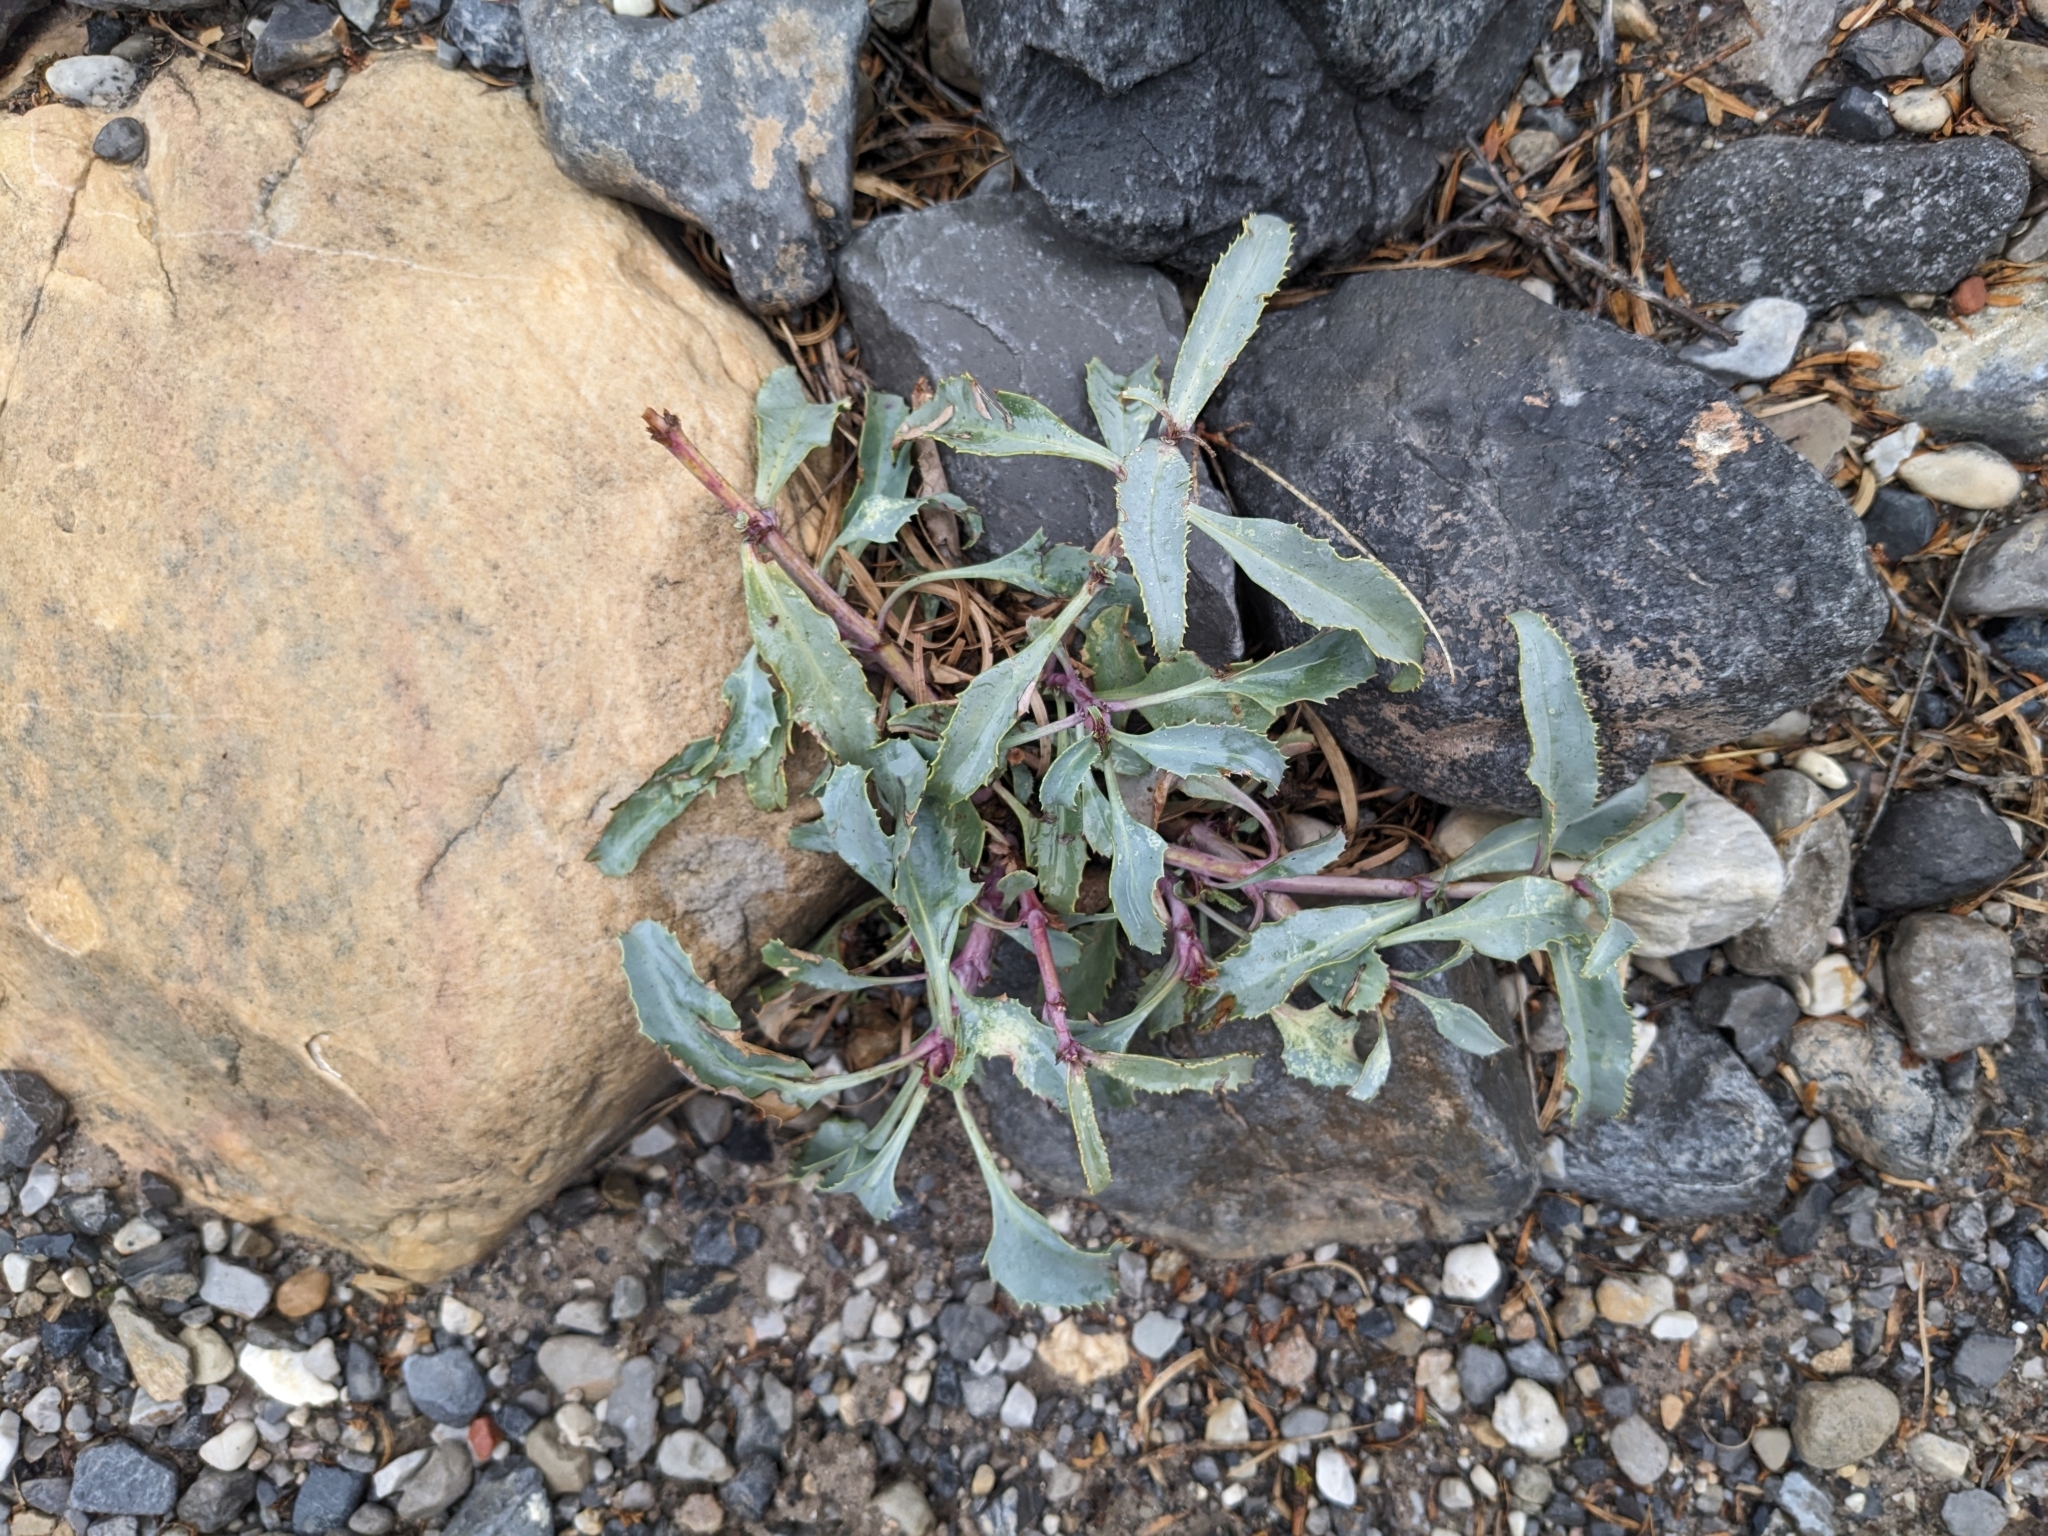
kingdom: Plantae
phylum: Tracheophyta
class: Magnoliopsida
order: Lamiales
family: Plantaginaceae
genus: Penstemon
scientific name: Penstemon palmeri
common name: Palmer penstemon
